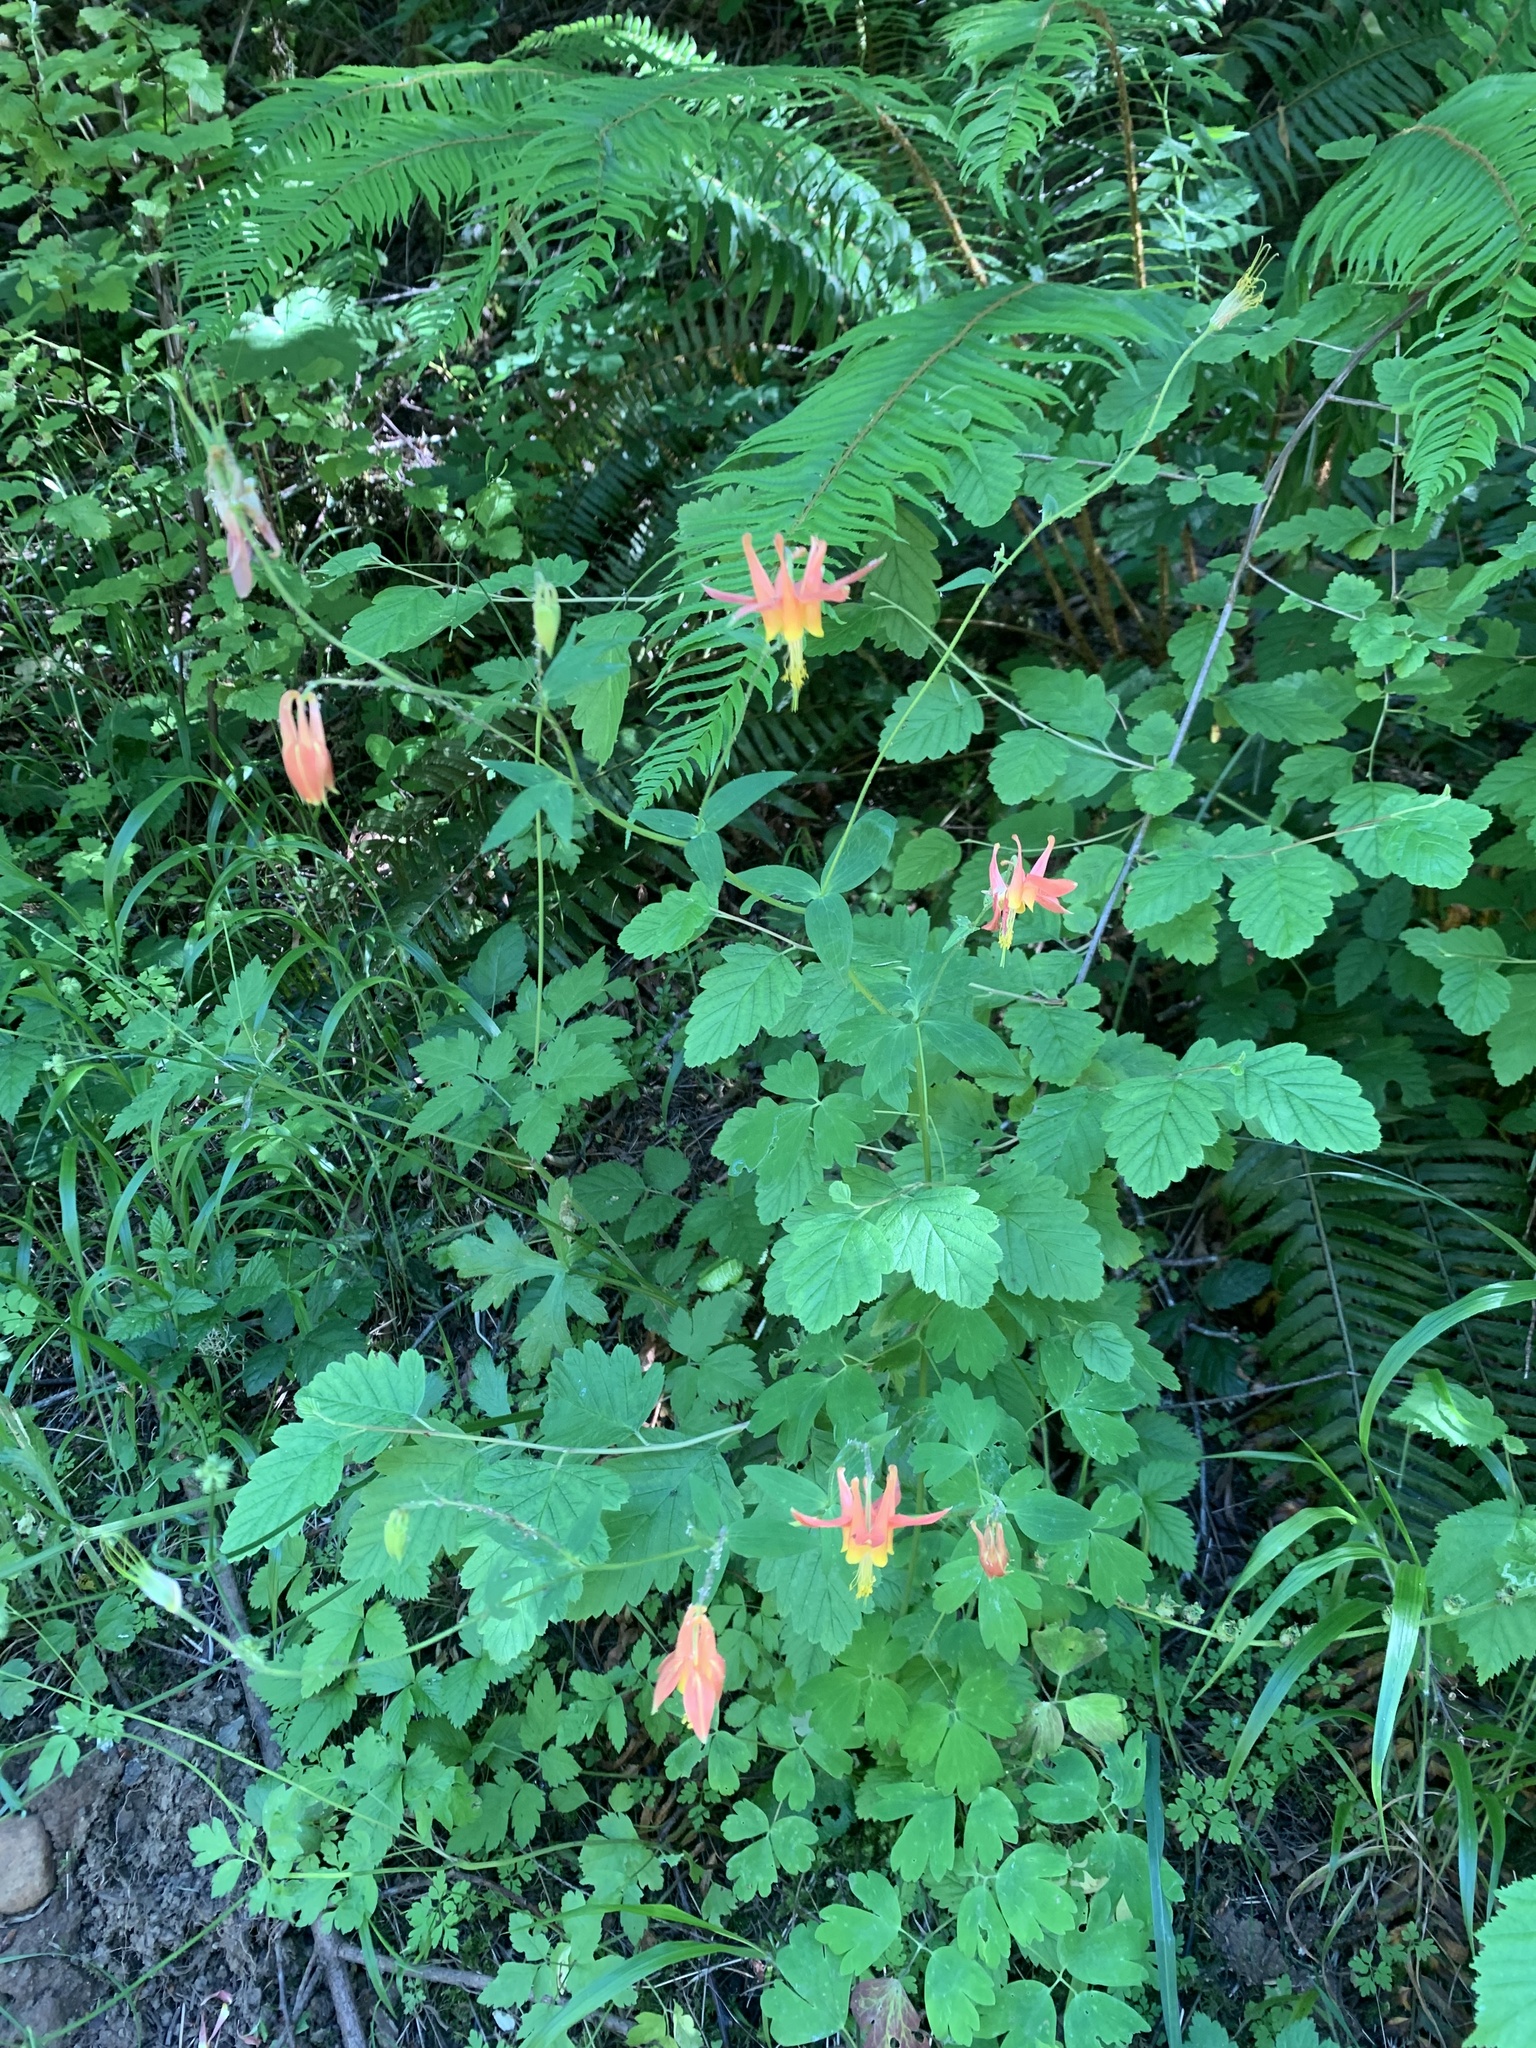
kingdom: Plantae
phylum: Tracheophyta
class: Magnoliopsida
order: Ranunculales
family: Ranunculaceae
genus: Aquilegia
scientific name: Aquilegia formosa
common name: Sitka columbine
